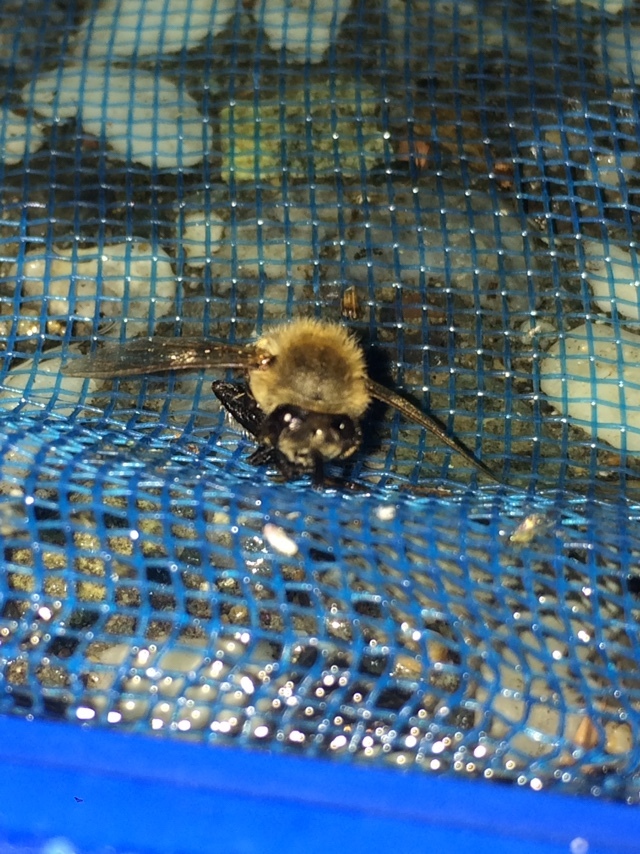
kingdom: Animalia
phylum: Arthropoda
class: Insecta
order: Hymenoptera
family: Apidae
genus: Apis
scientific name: Apis mellifera
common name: Honey bee
